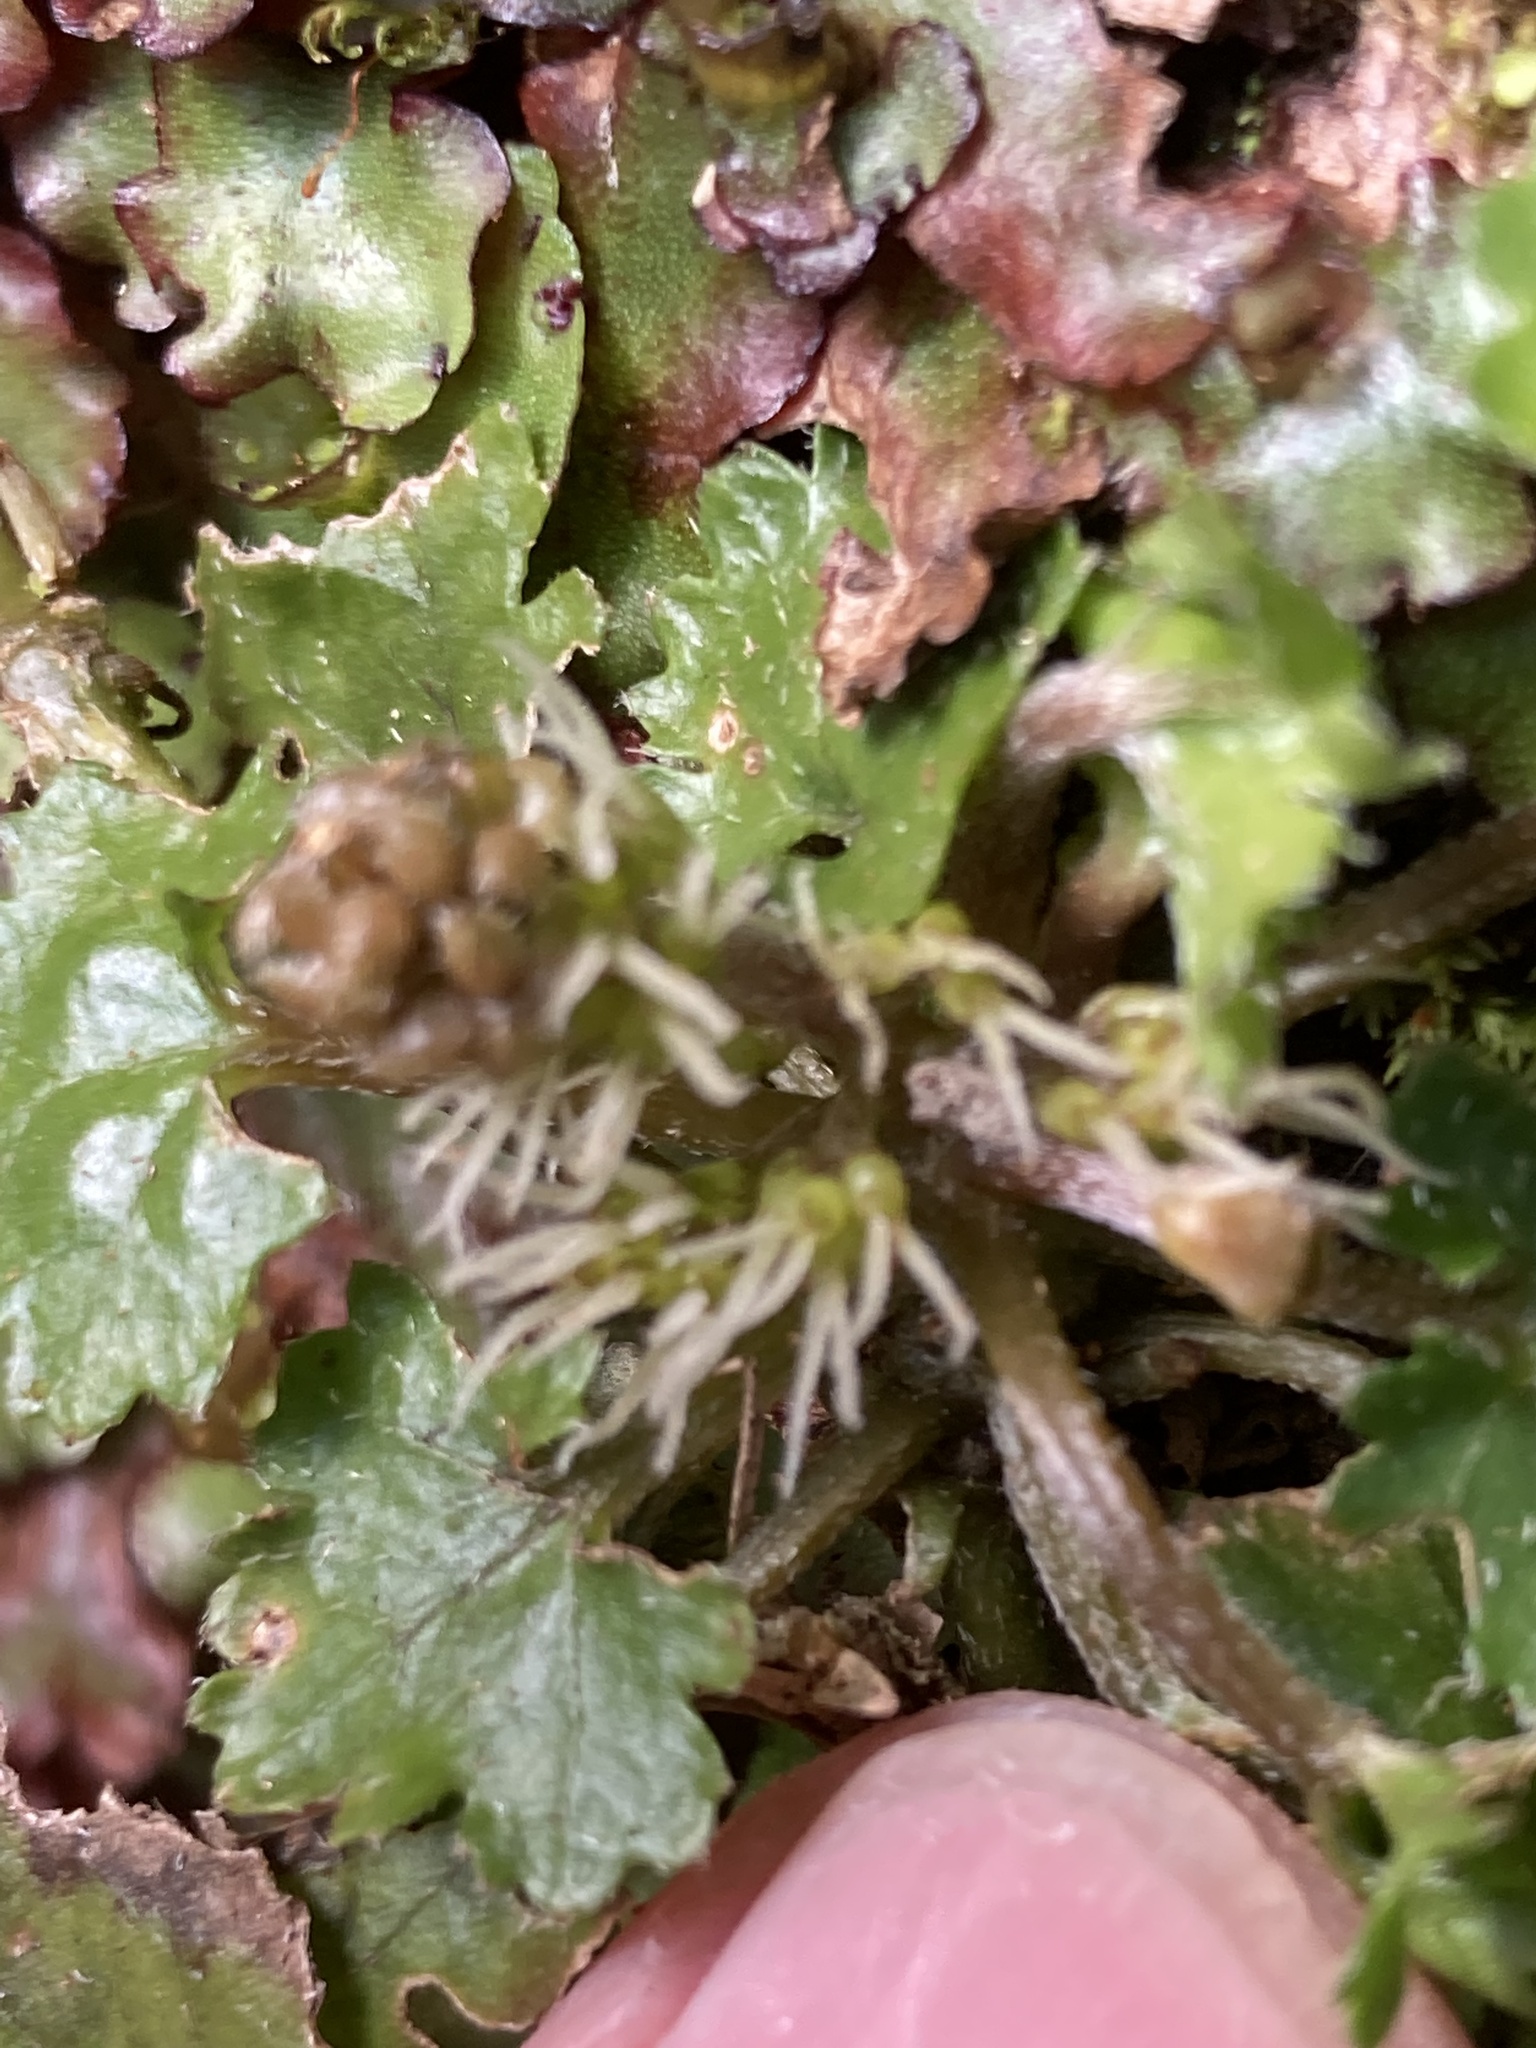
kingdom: Plantae
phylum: Tracheophyta
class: Magnoliopsida
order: Gunnerales
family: Gunneraceae
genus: Gunnera
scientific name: Gunnera monoica
